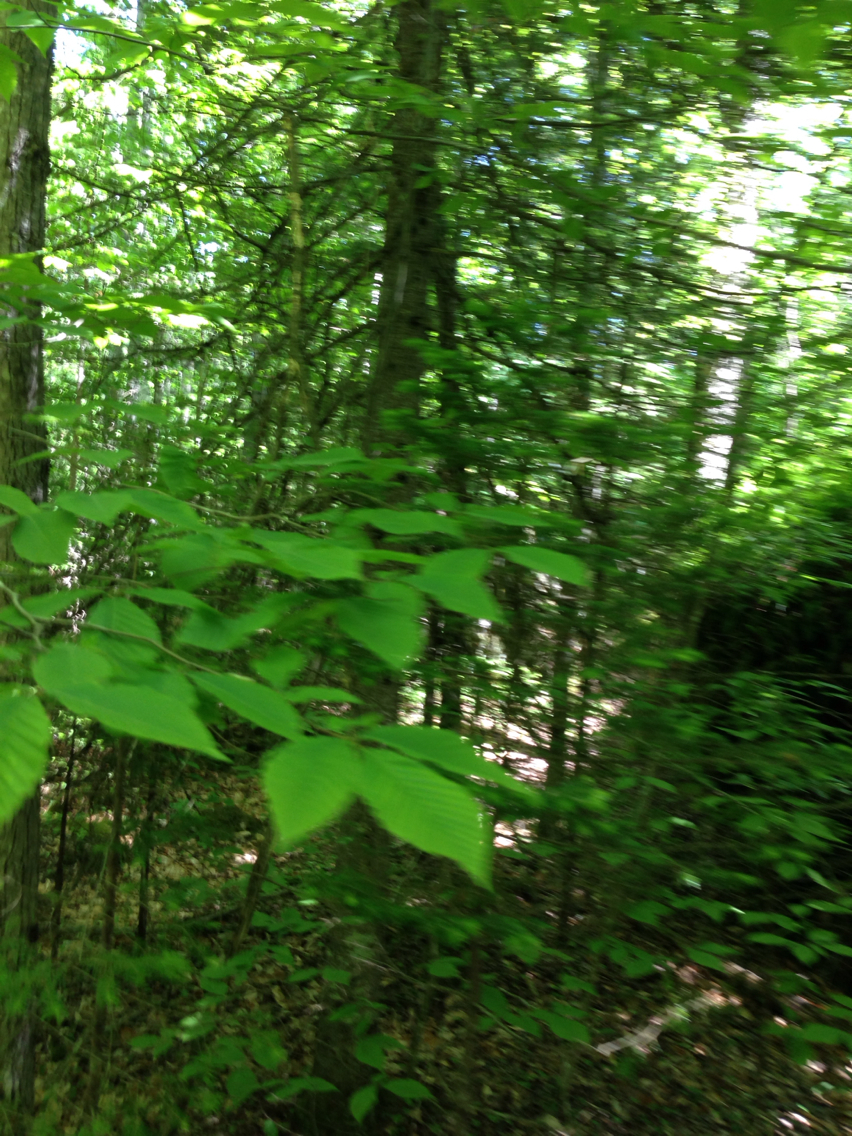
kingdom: Plantae
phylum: Tracheophyta
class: Magnoliopsida
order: Fagales
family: Fagaceae
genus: Fagus
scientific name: Fagus grandifolia
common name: American beech
